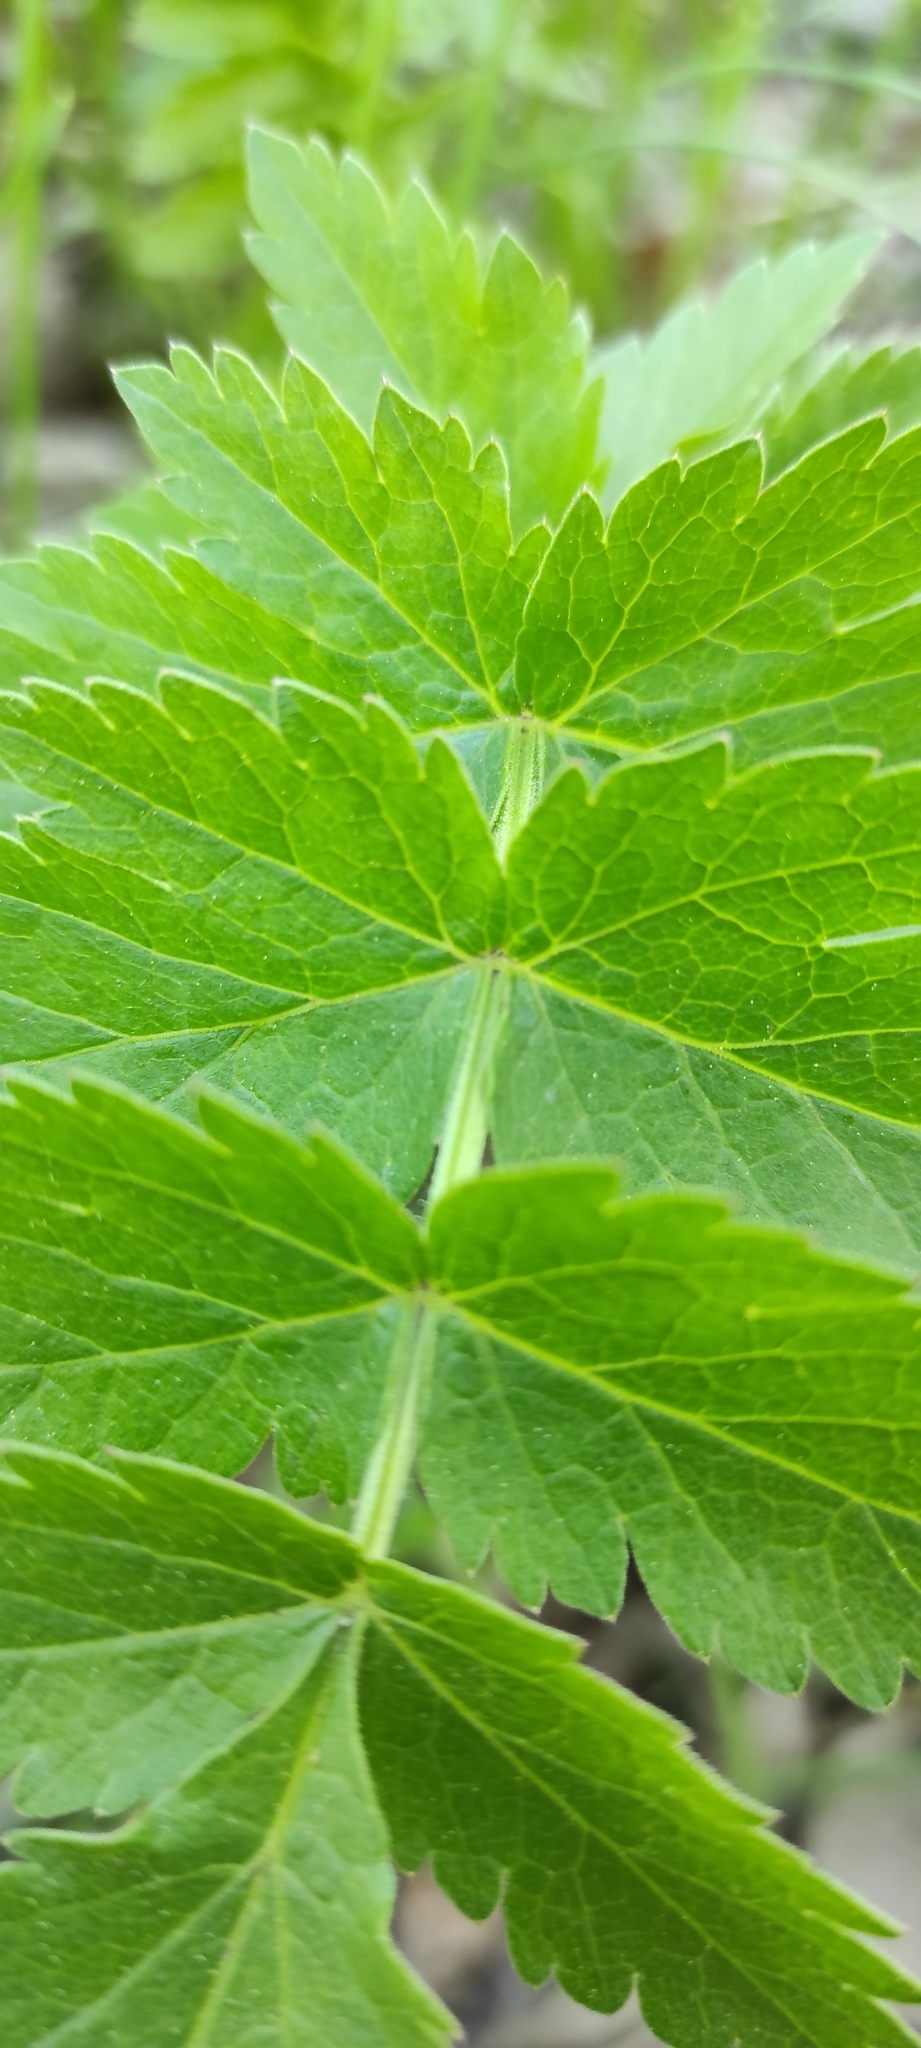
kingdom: Plantae
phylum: Tracheophyta
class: Magnoliopsida
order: Apiales
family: Apiaceae
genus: Pastinaca
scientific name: Pastinaca sativa
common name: Wild parsnip
